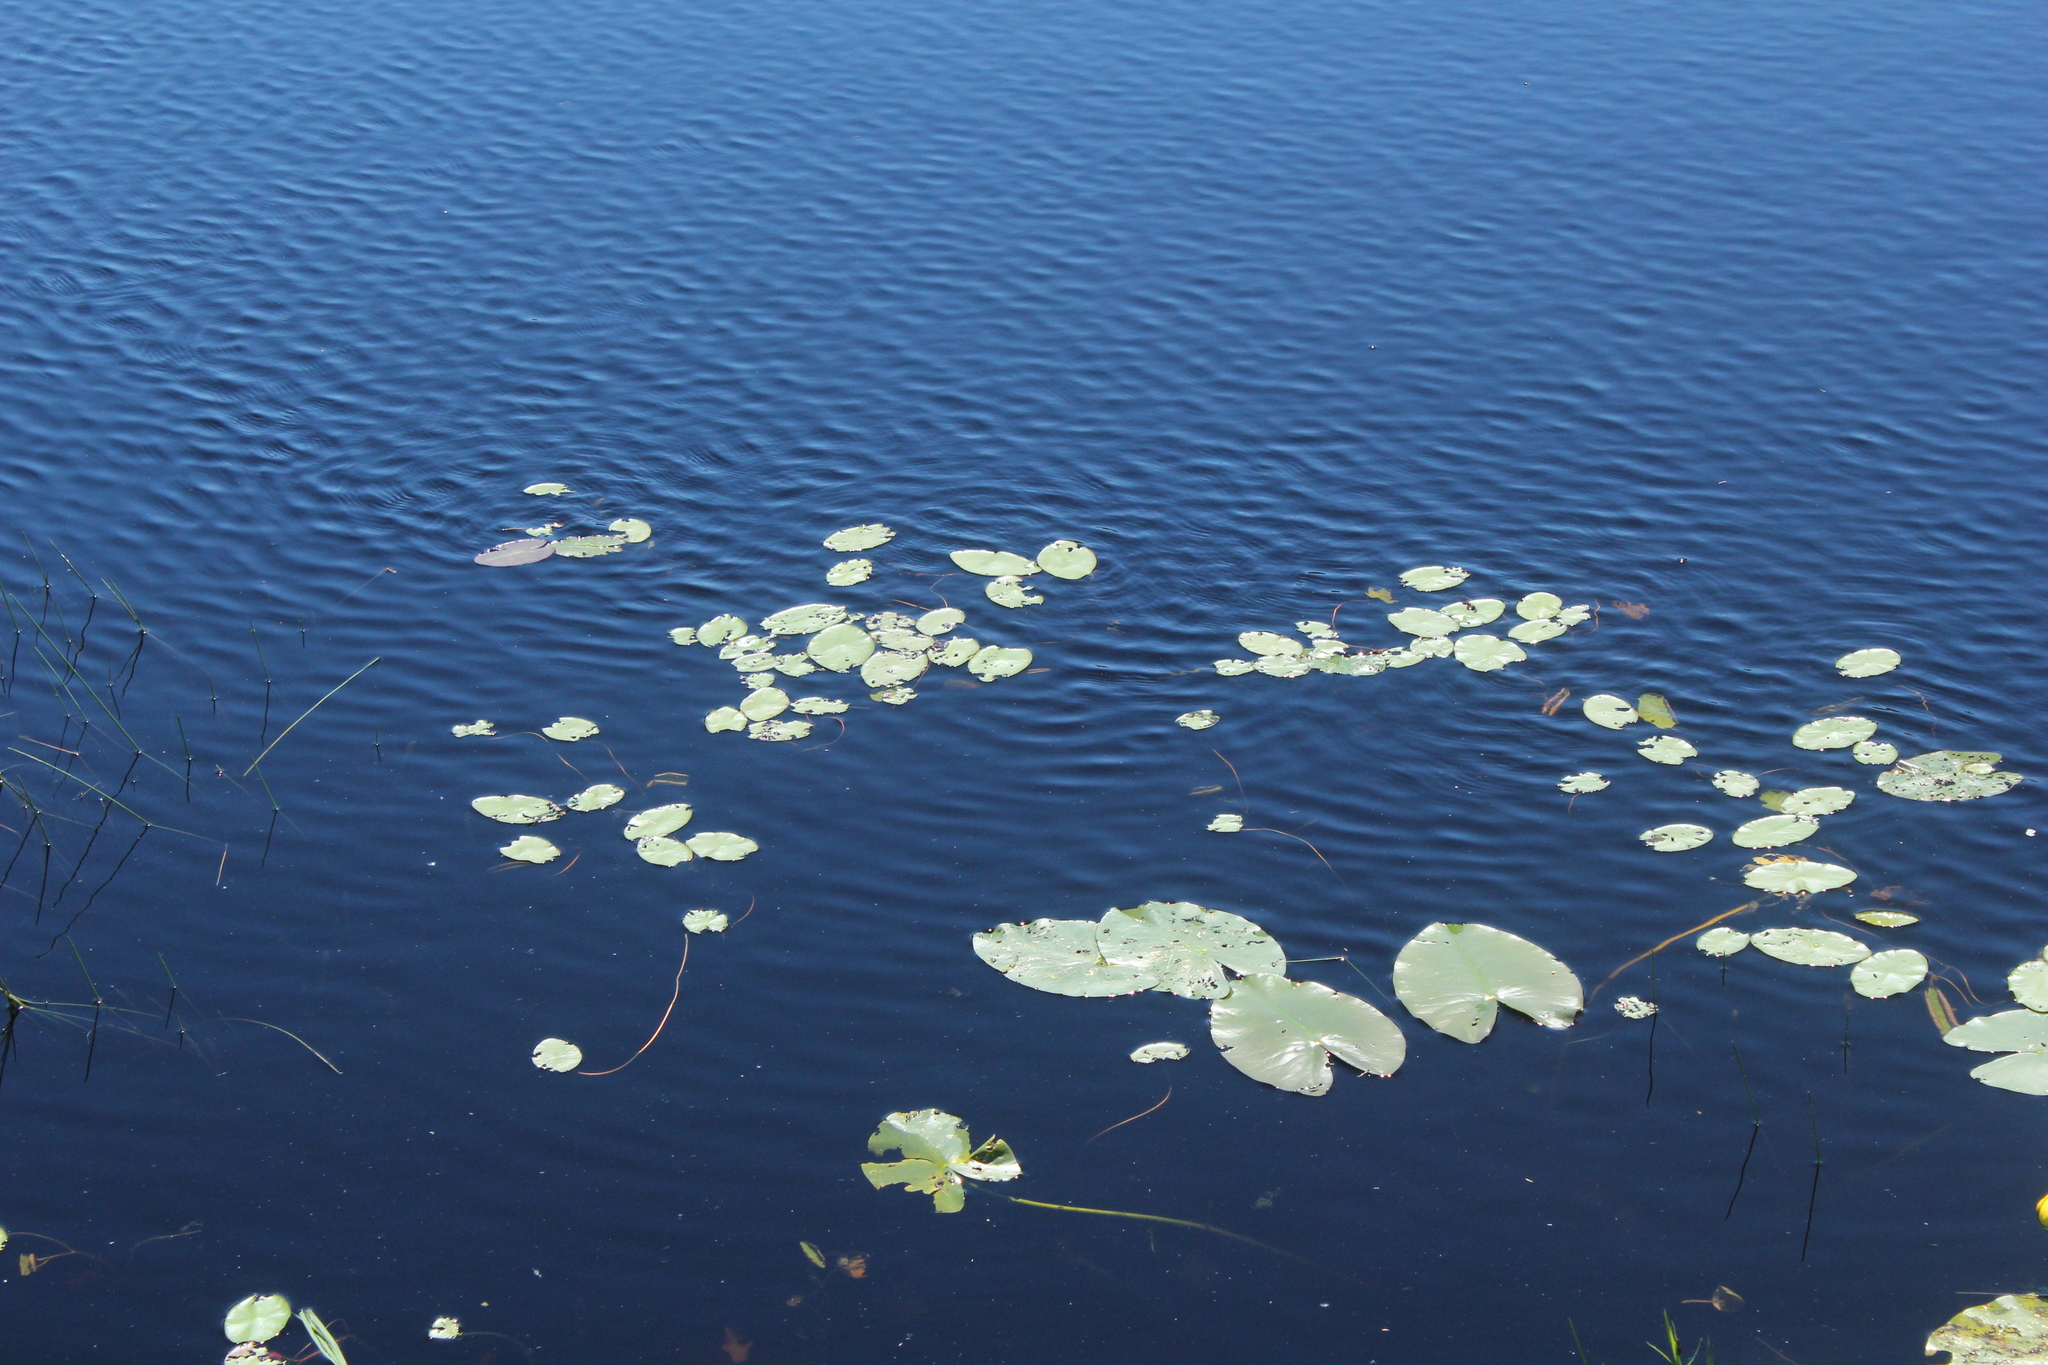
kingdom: Plantae
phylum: Tracheophyta
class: Magnoliopsida
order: Nymphaeales
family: Cabombaceae
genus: Brasenia
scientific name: Brasenia schreberi
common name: Water-shield
